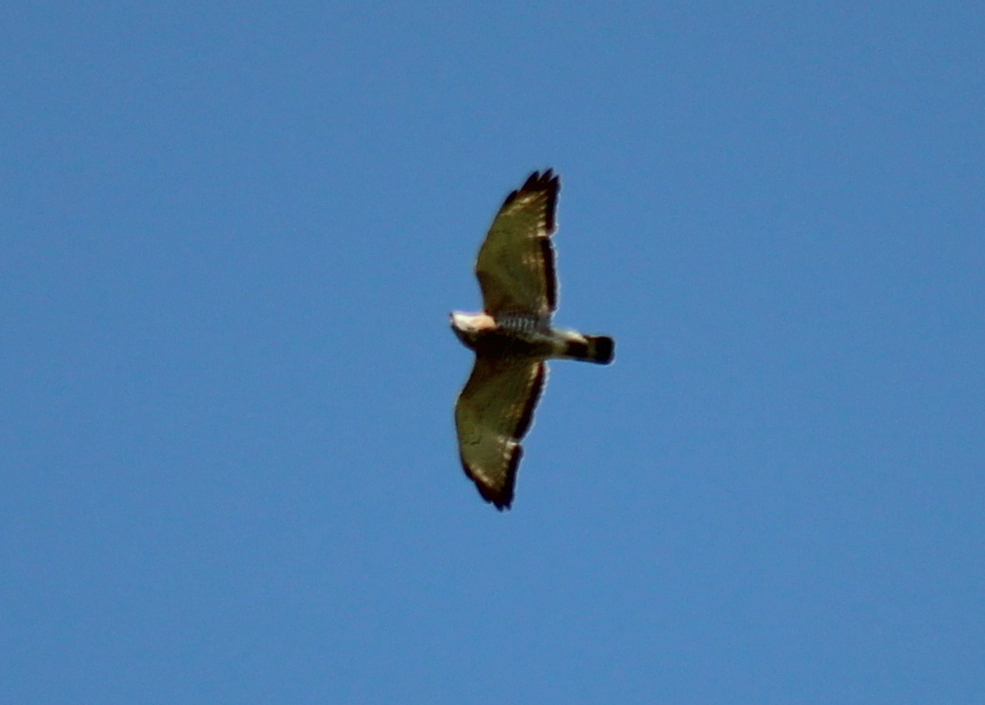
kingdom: Animalia
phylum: Chordata
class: Aves
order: Accipitriformes
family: Accipitridae
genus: Buteo
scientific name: Buteo platypterus
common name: Broad-winged hawk
